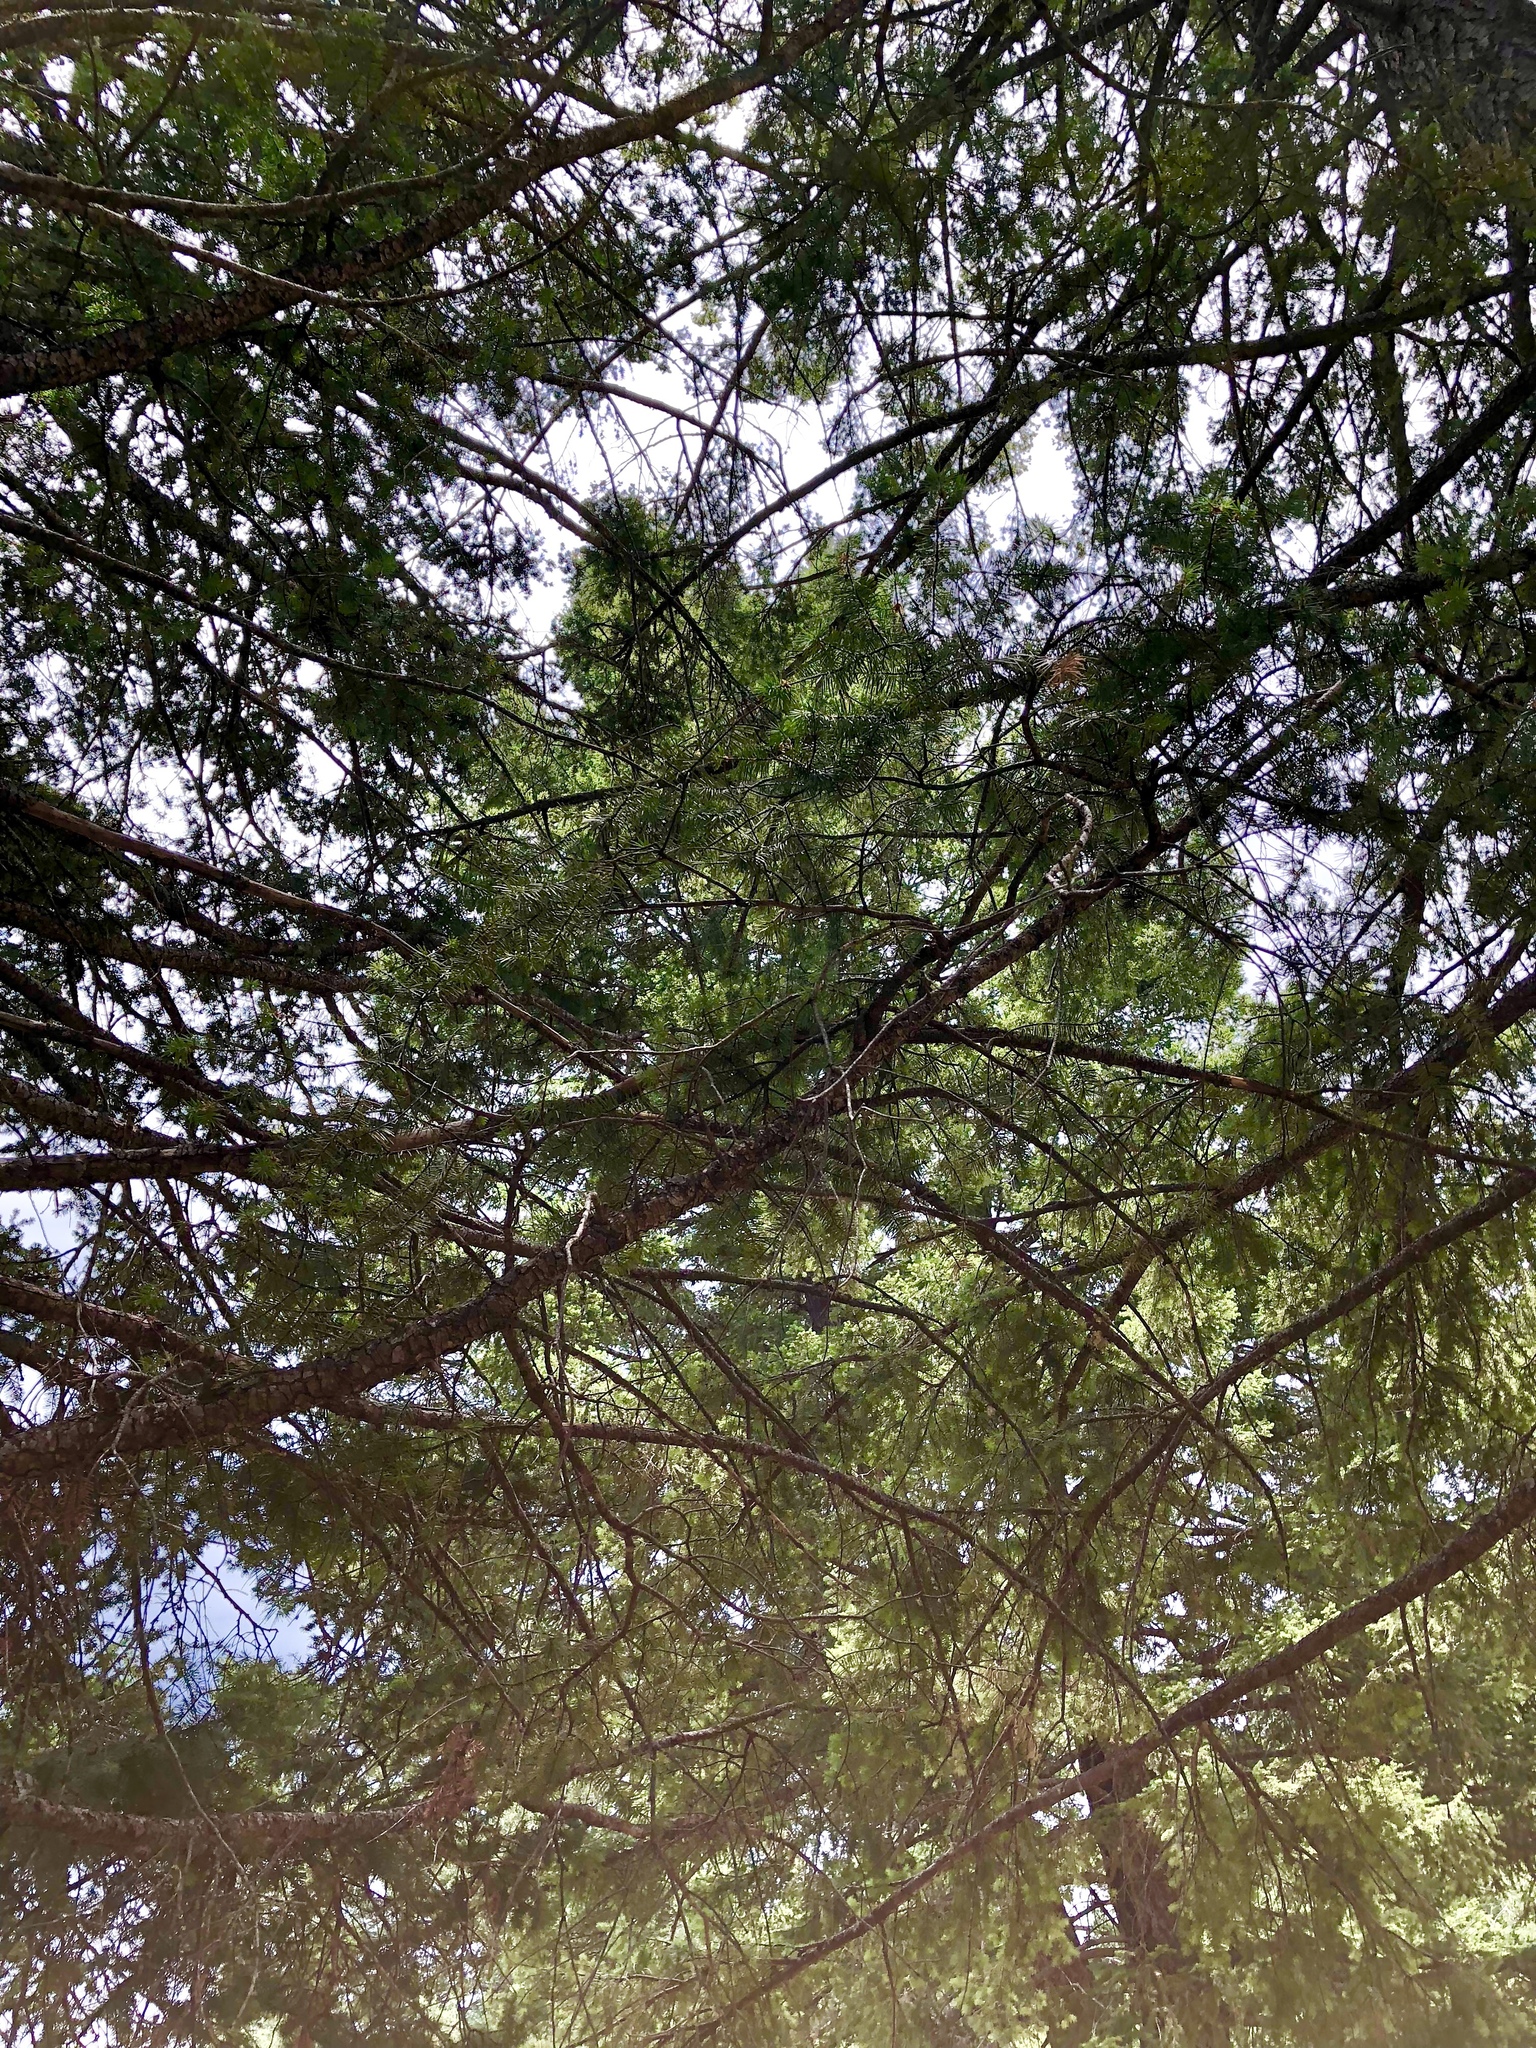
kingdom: Plantae
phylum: Tracheophyta
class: Pinopsida
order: Pinales
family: Pinaceae
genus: Pseudotsuga
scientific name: Pseudotsuga menziesii
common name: Douglas fir
